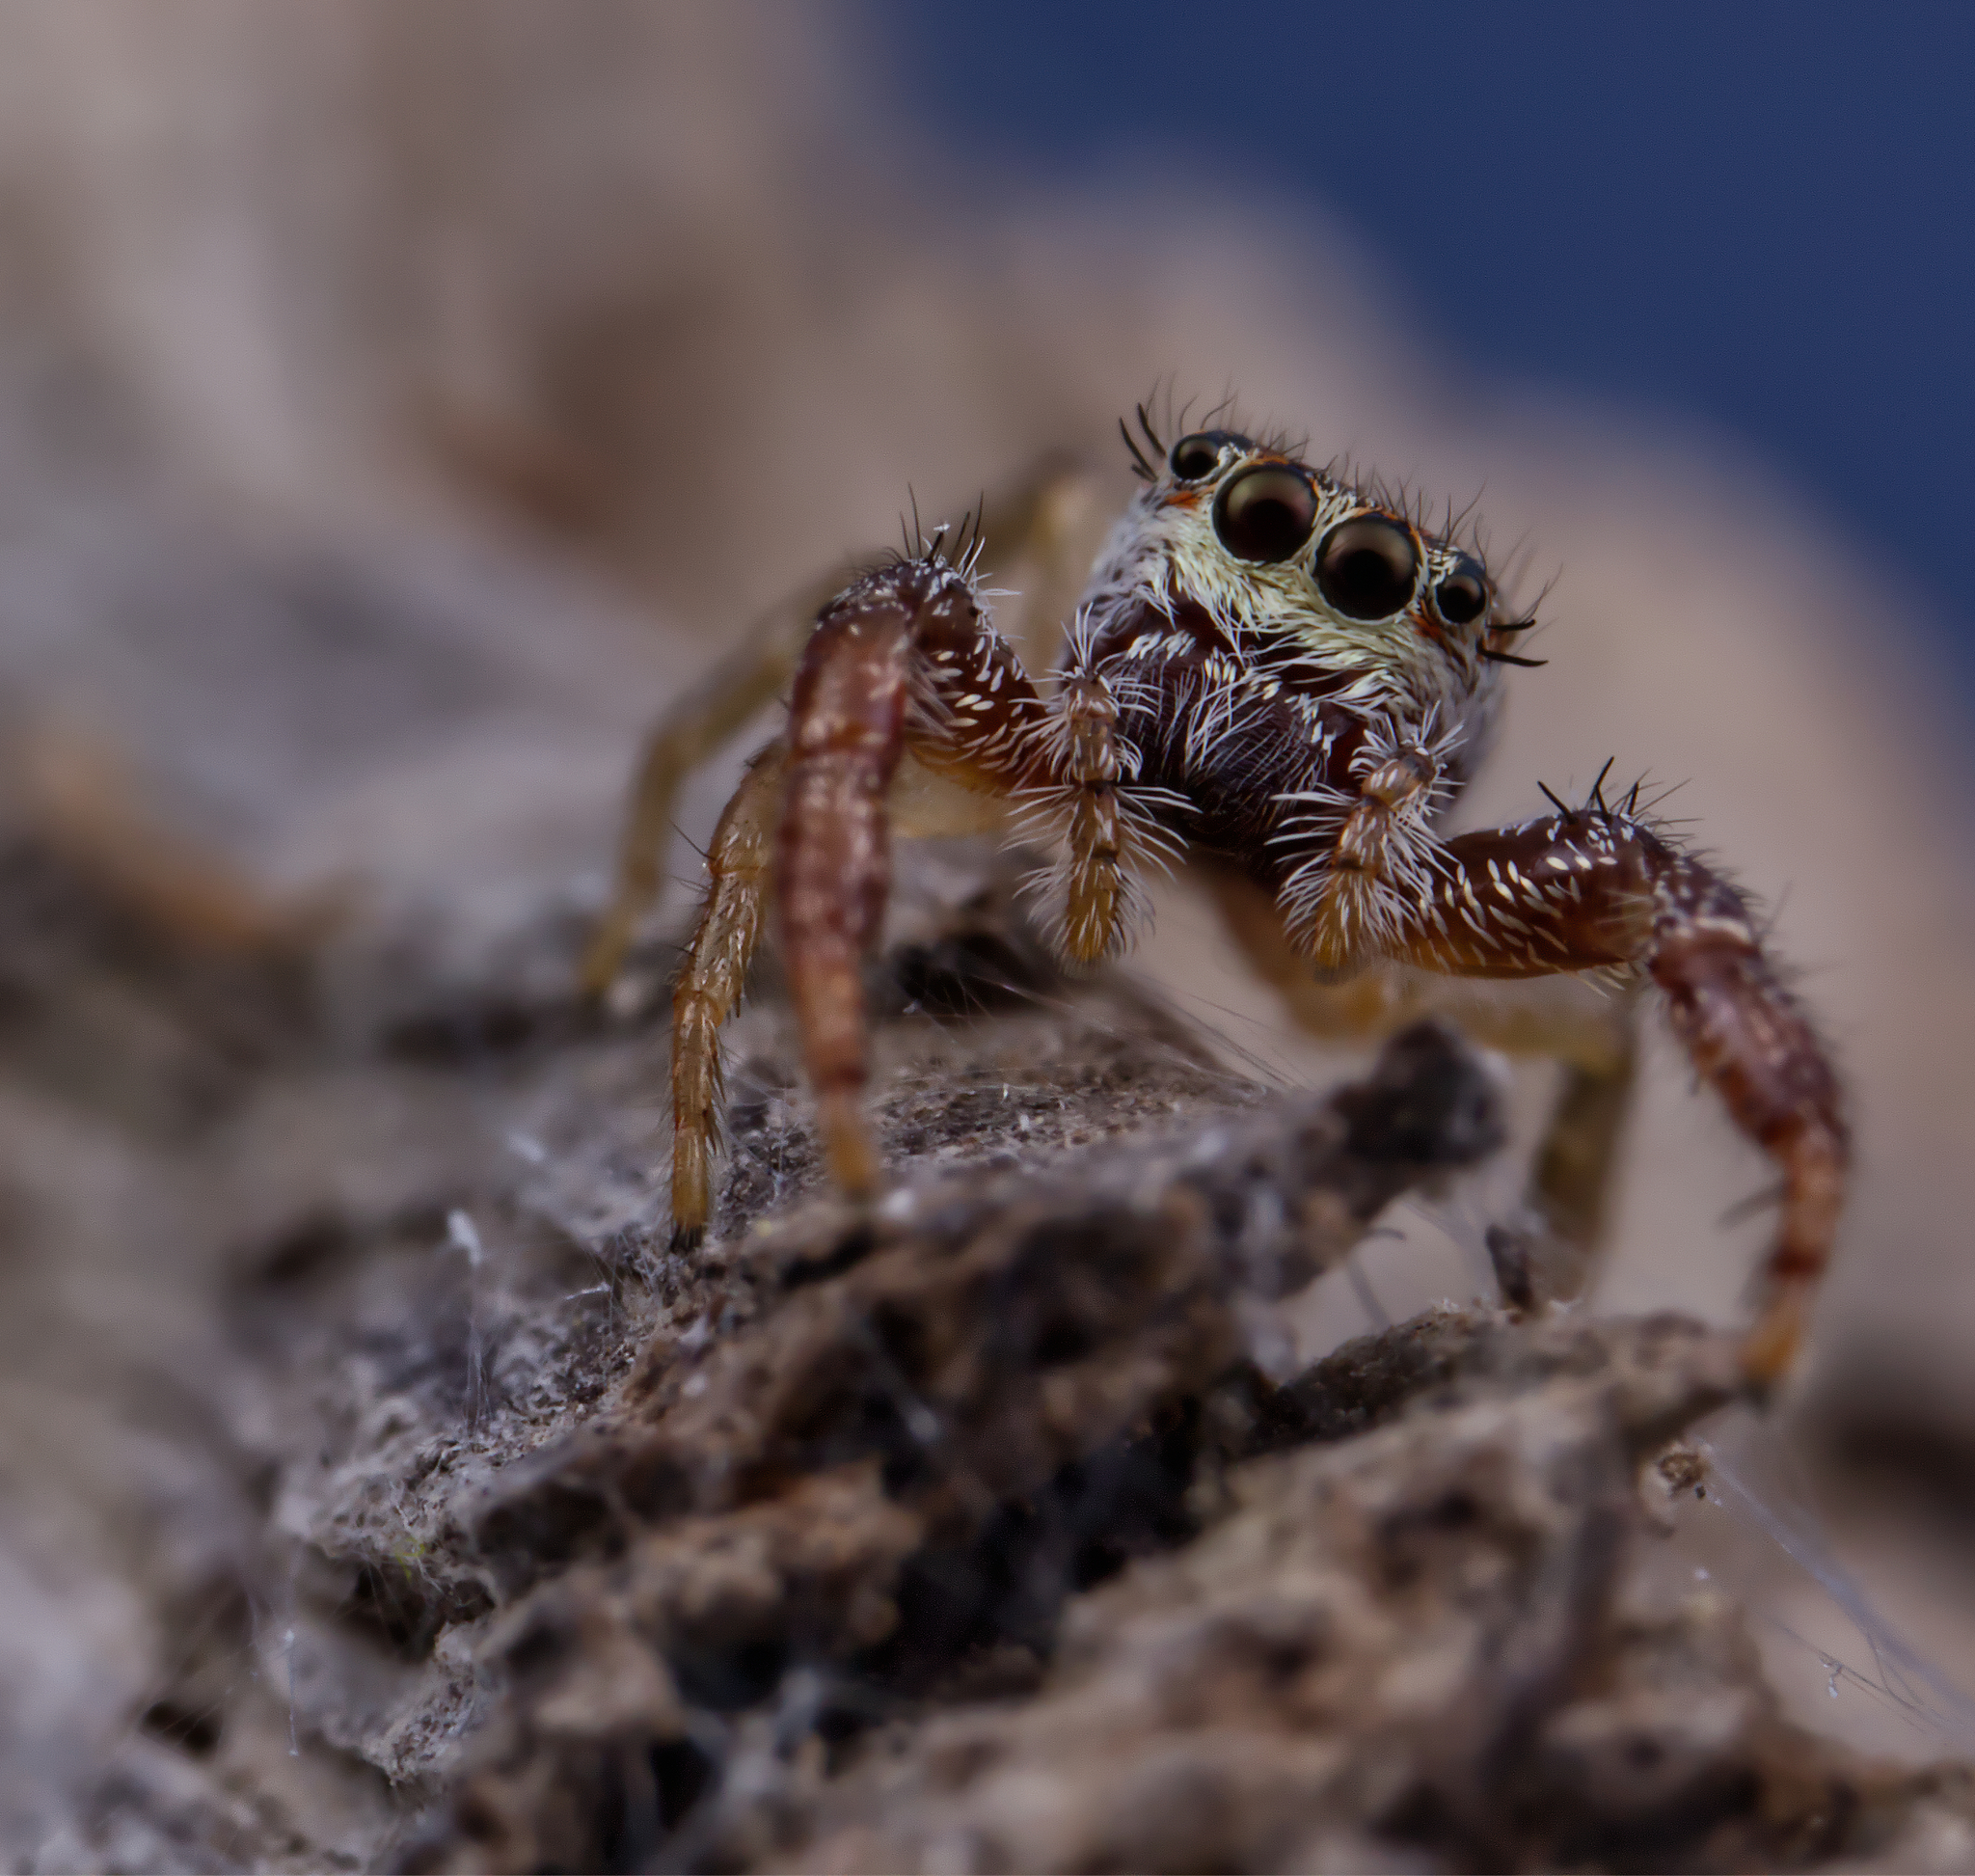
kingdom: Animalia
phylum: Arthropoda
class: Arachnida
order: Araneae
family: Salticidae
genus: Hentzia
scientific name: Hentzia palmarum
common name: Common hentz jumping spider
